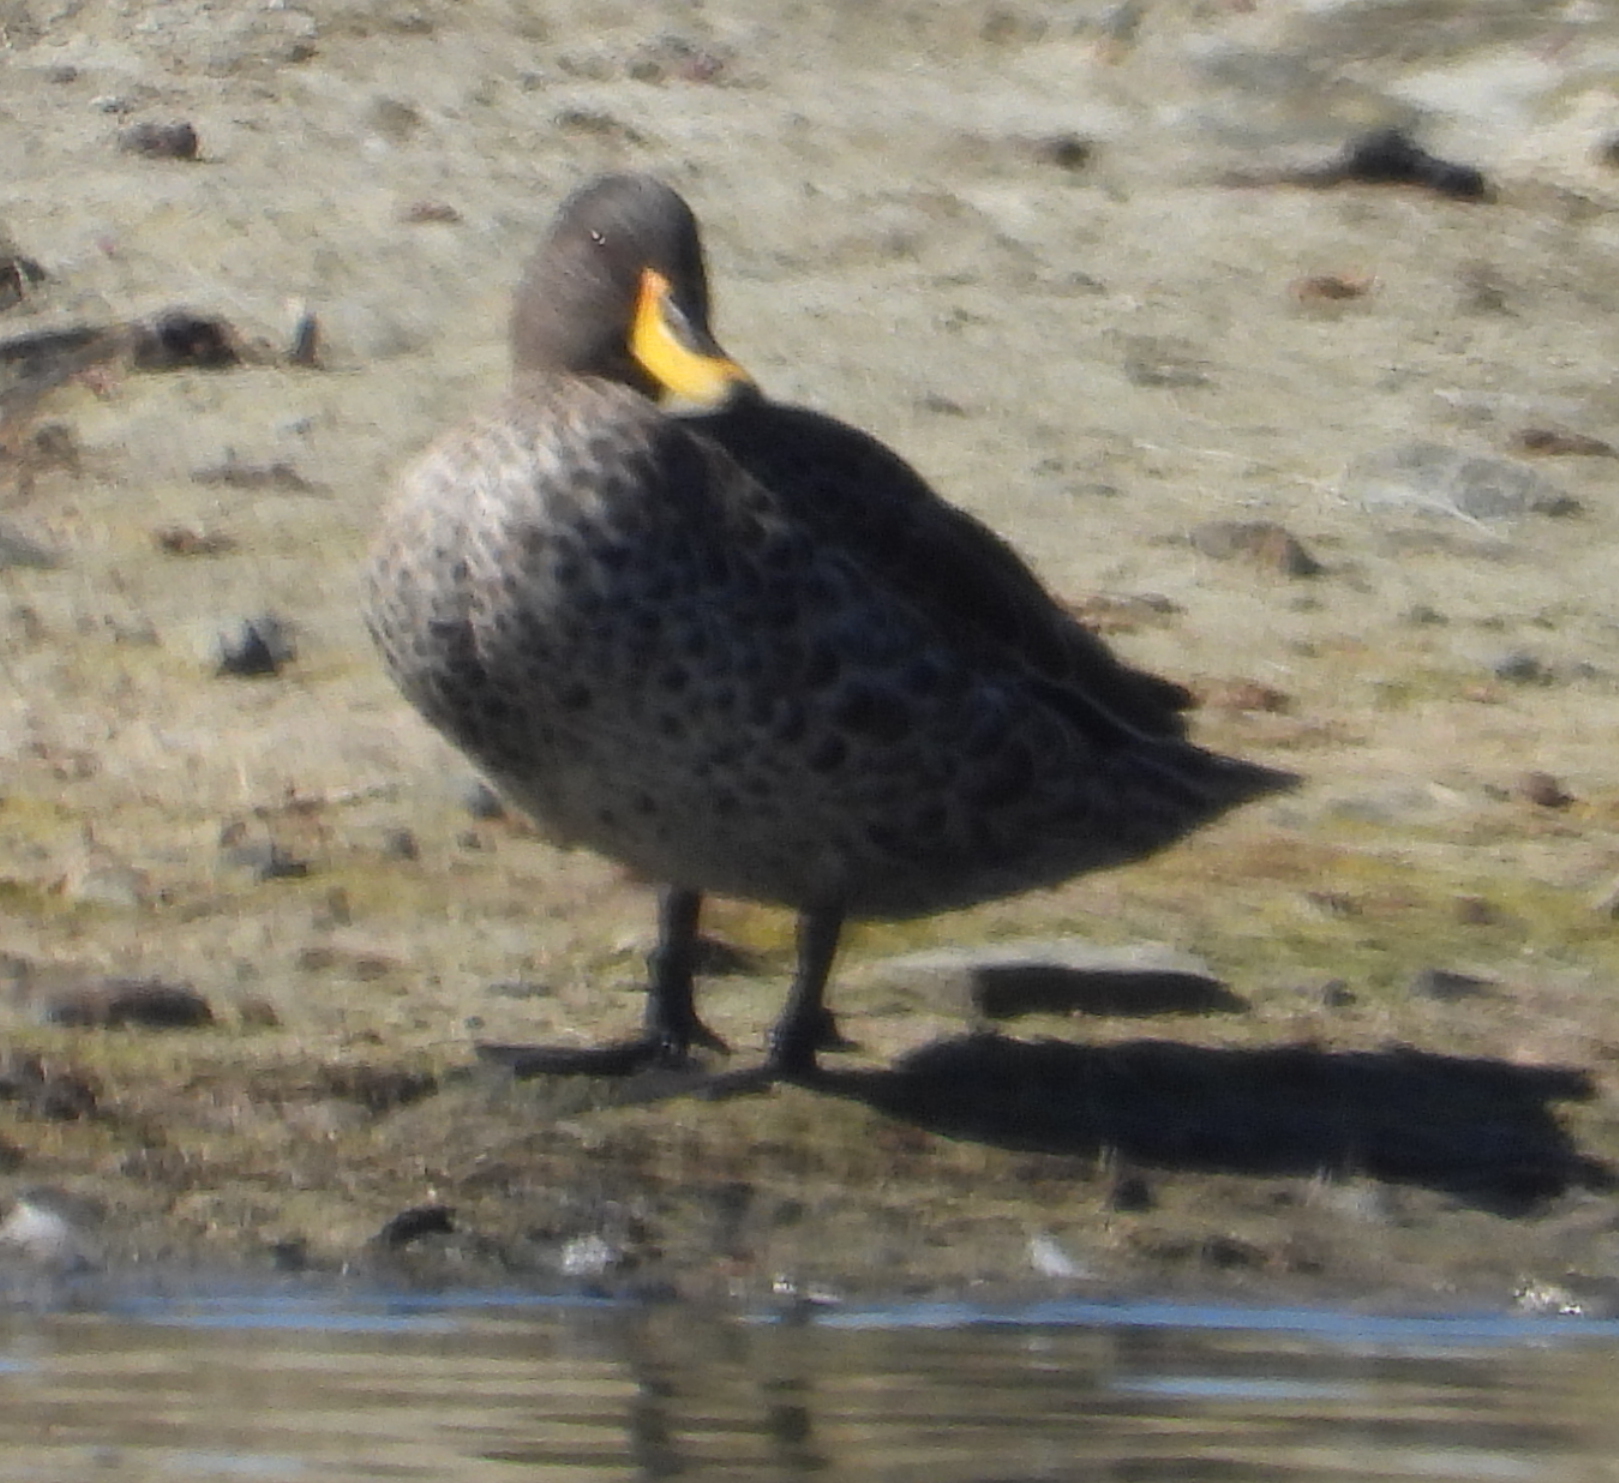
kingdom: Animalia
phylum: Chordata
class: Aves
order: Anseriformes
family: Anatidae
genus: Anas
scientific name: Anas undulata
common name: Yellow-billed duck
